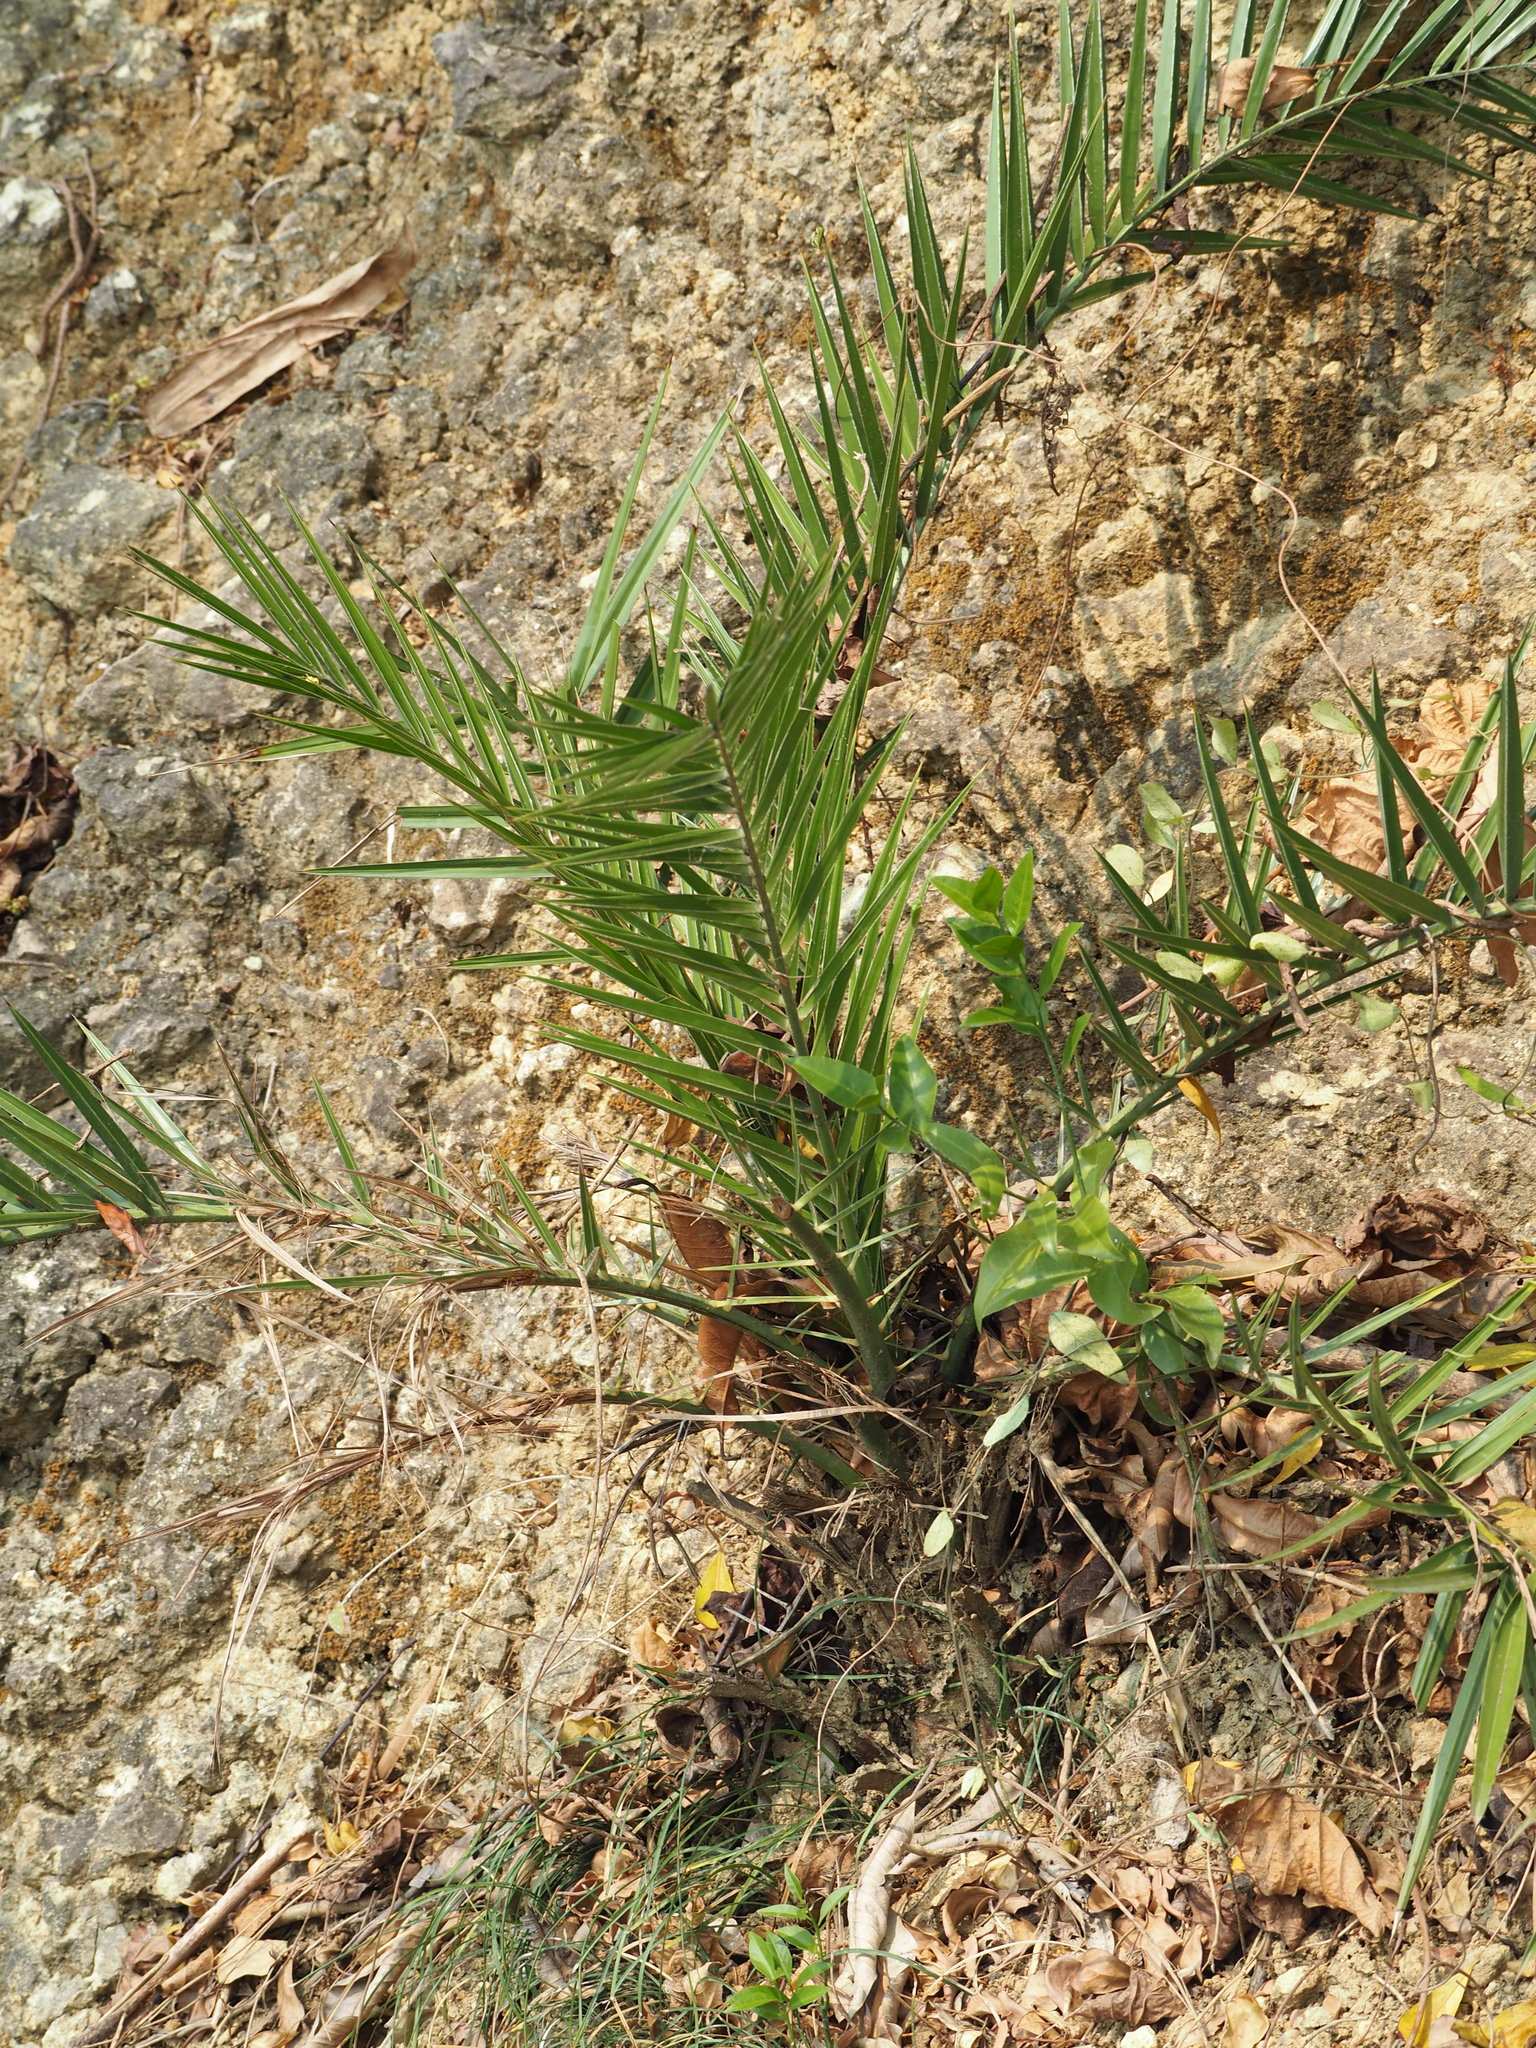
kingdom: Plantae
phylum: Tracheophyta
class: Liliopsida
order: Arecales
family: Arecaceae
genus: Phoenix
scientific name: Phoenix loureiroi
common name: Loureiro's palm
